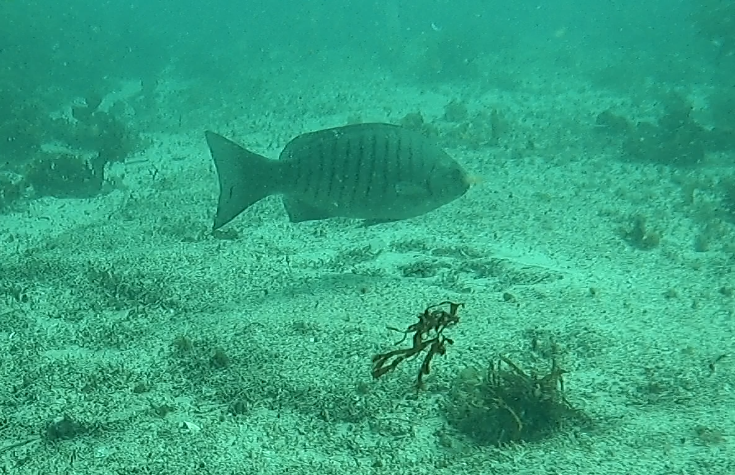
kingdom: Animalia
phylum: Chordata
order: Perciformes
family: Kyphosidae
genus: Girella
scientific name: Girella tricuspidata
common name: Parore
